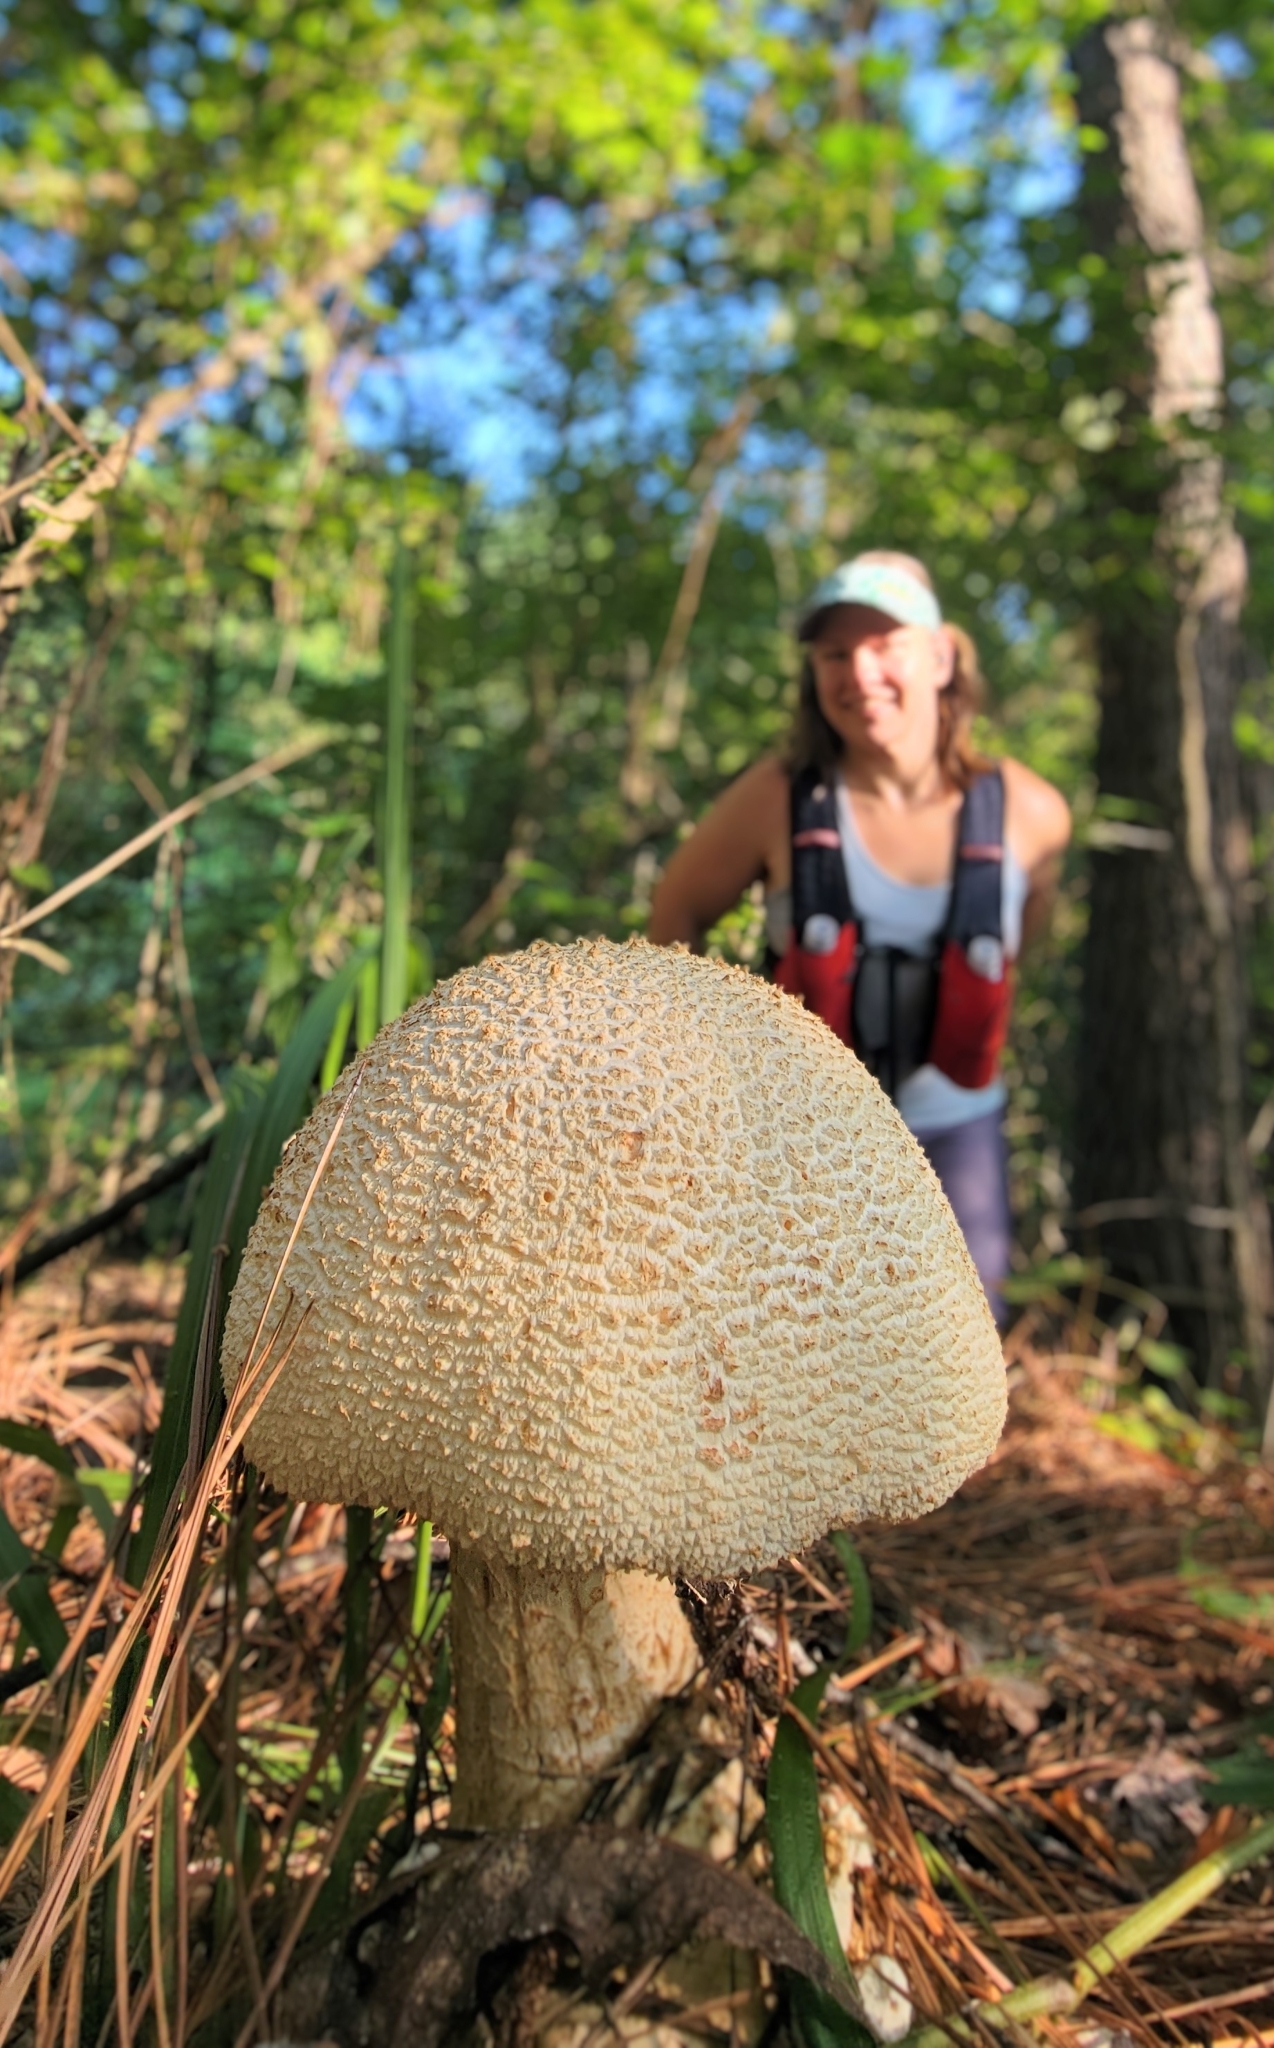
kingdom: Fungi
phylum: Basidiomycota
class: Agaricomycetes
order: Agaricales
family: Amanitaceae
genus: Amanita
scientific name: Amanita daucipes
